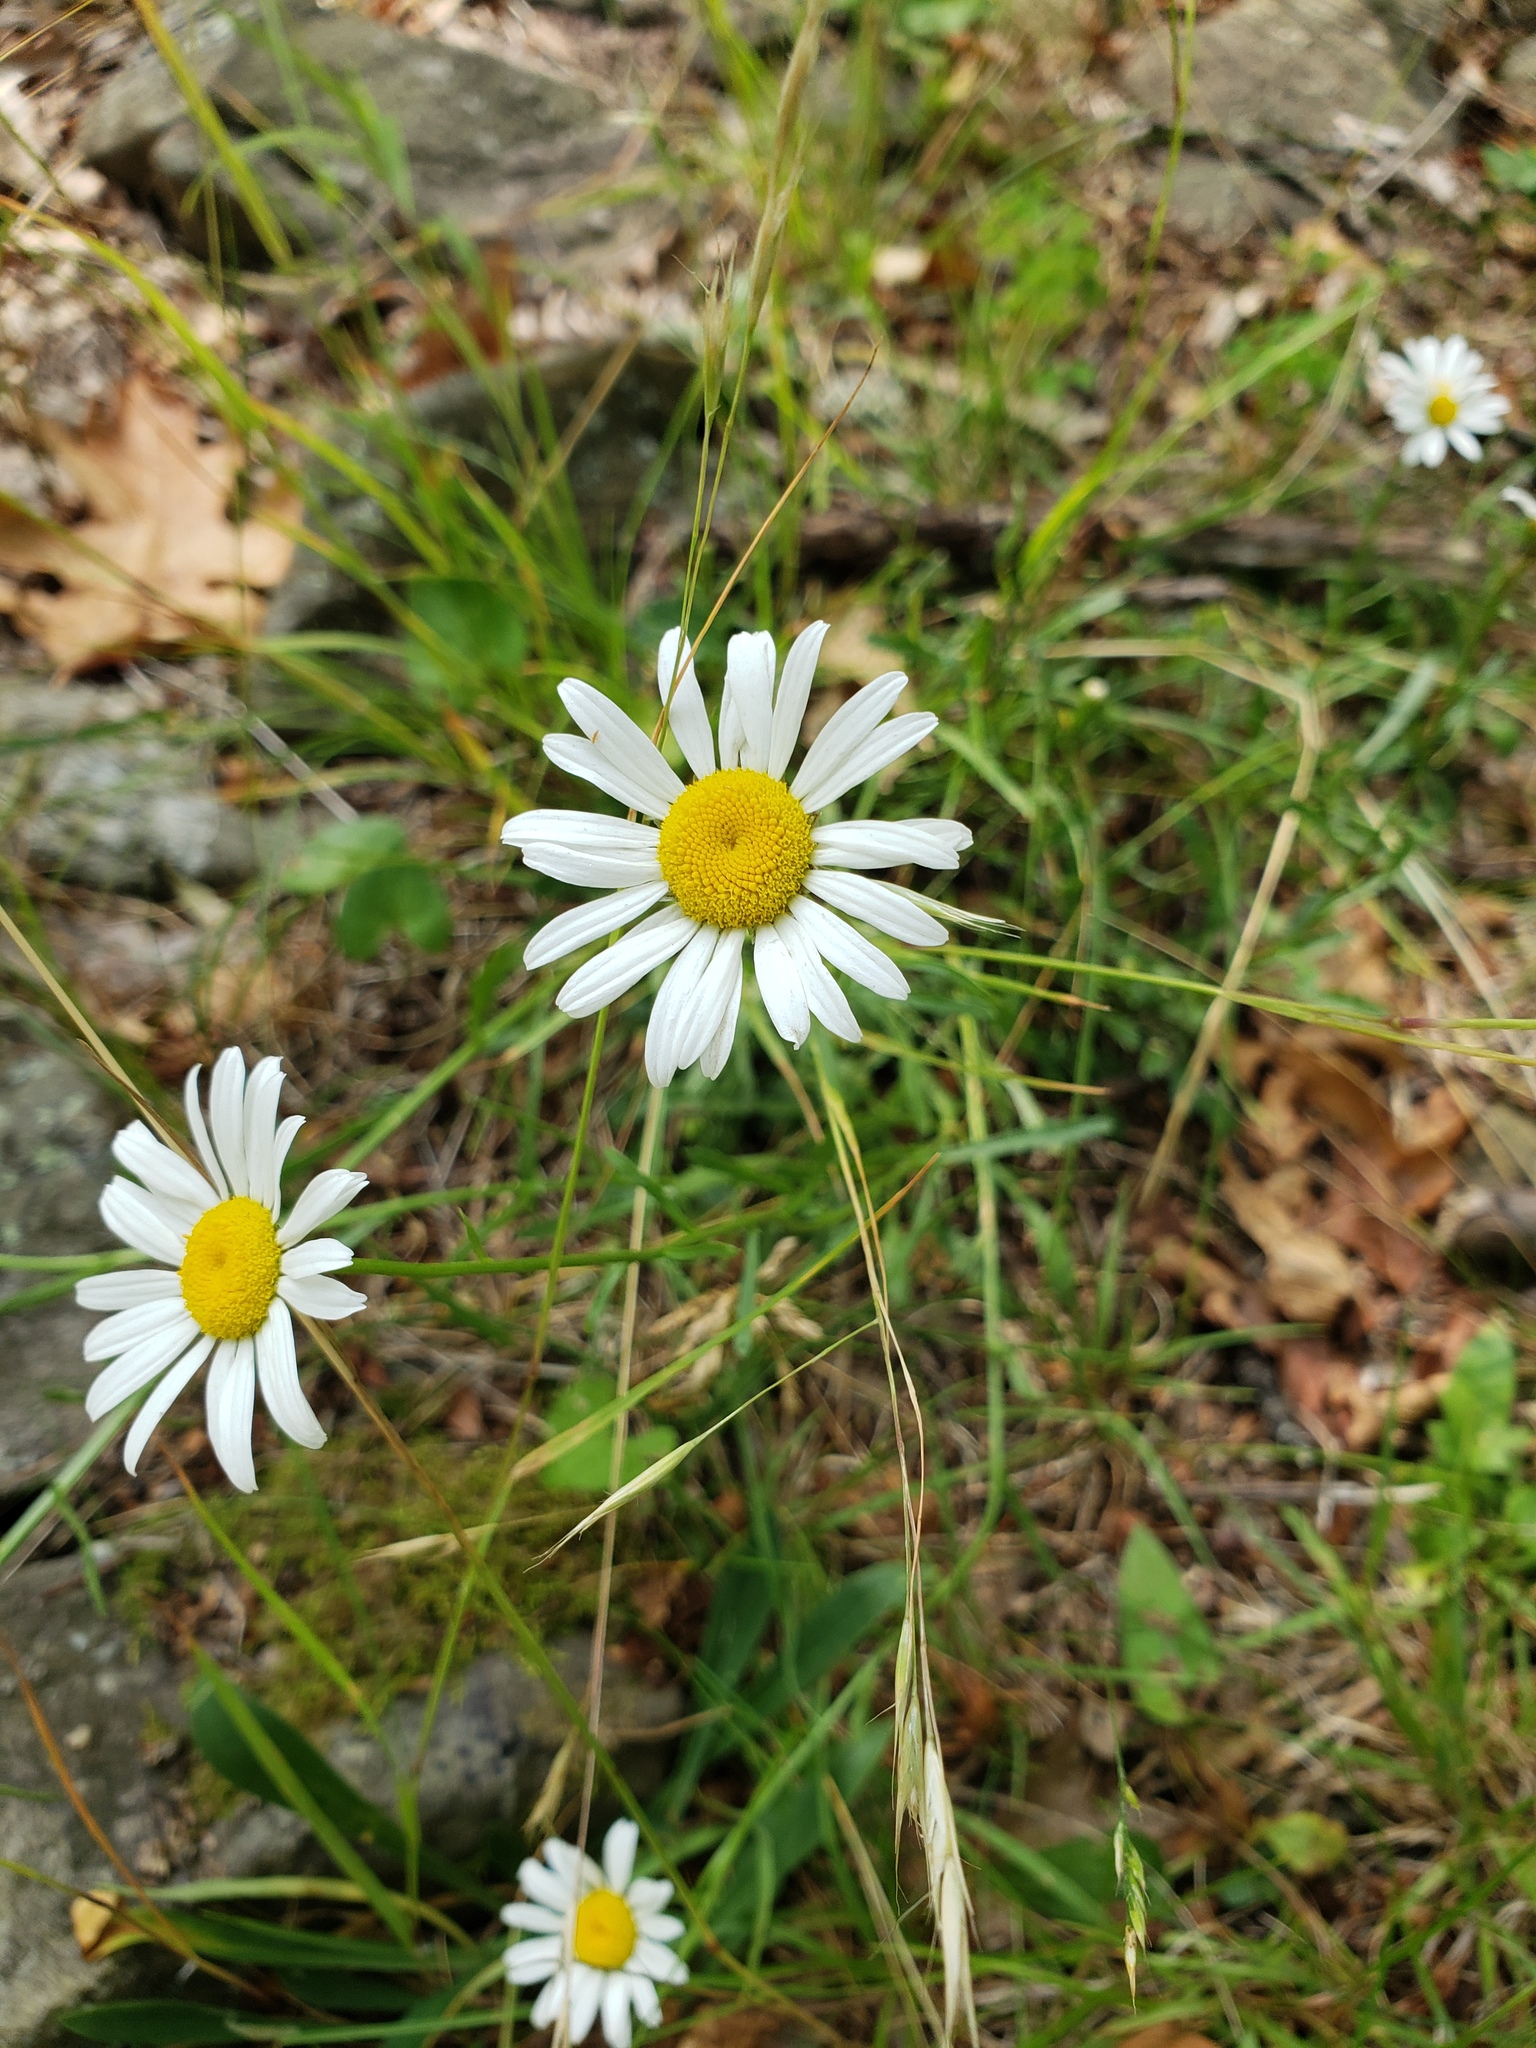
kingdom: Plantae
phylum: Tracheophyta
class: Magnoliopsida
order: Asterales
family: Asteraceae
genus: Leucanthemum
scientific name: Leucanthemum vulgare
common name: Oxeye daisy
